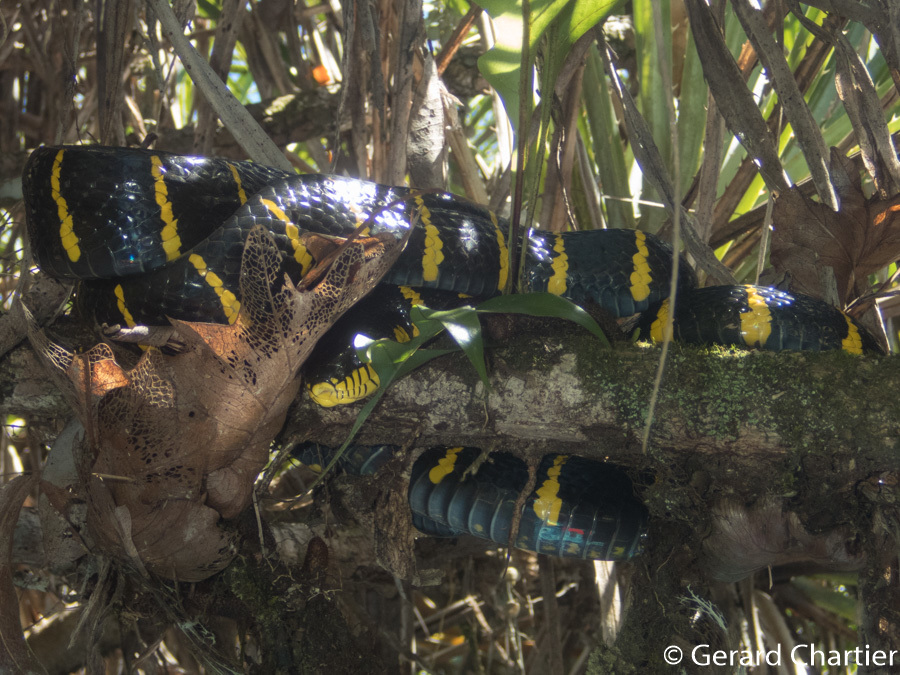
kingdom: Animalia
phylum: Chordata
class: Squamata
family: Colubridae
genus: Boiga
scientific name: Boiga melanota
